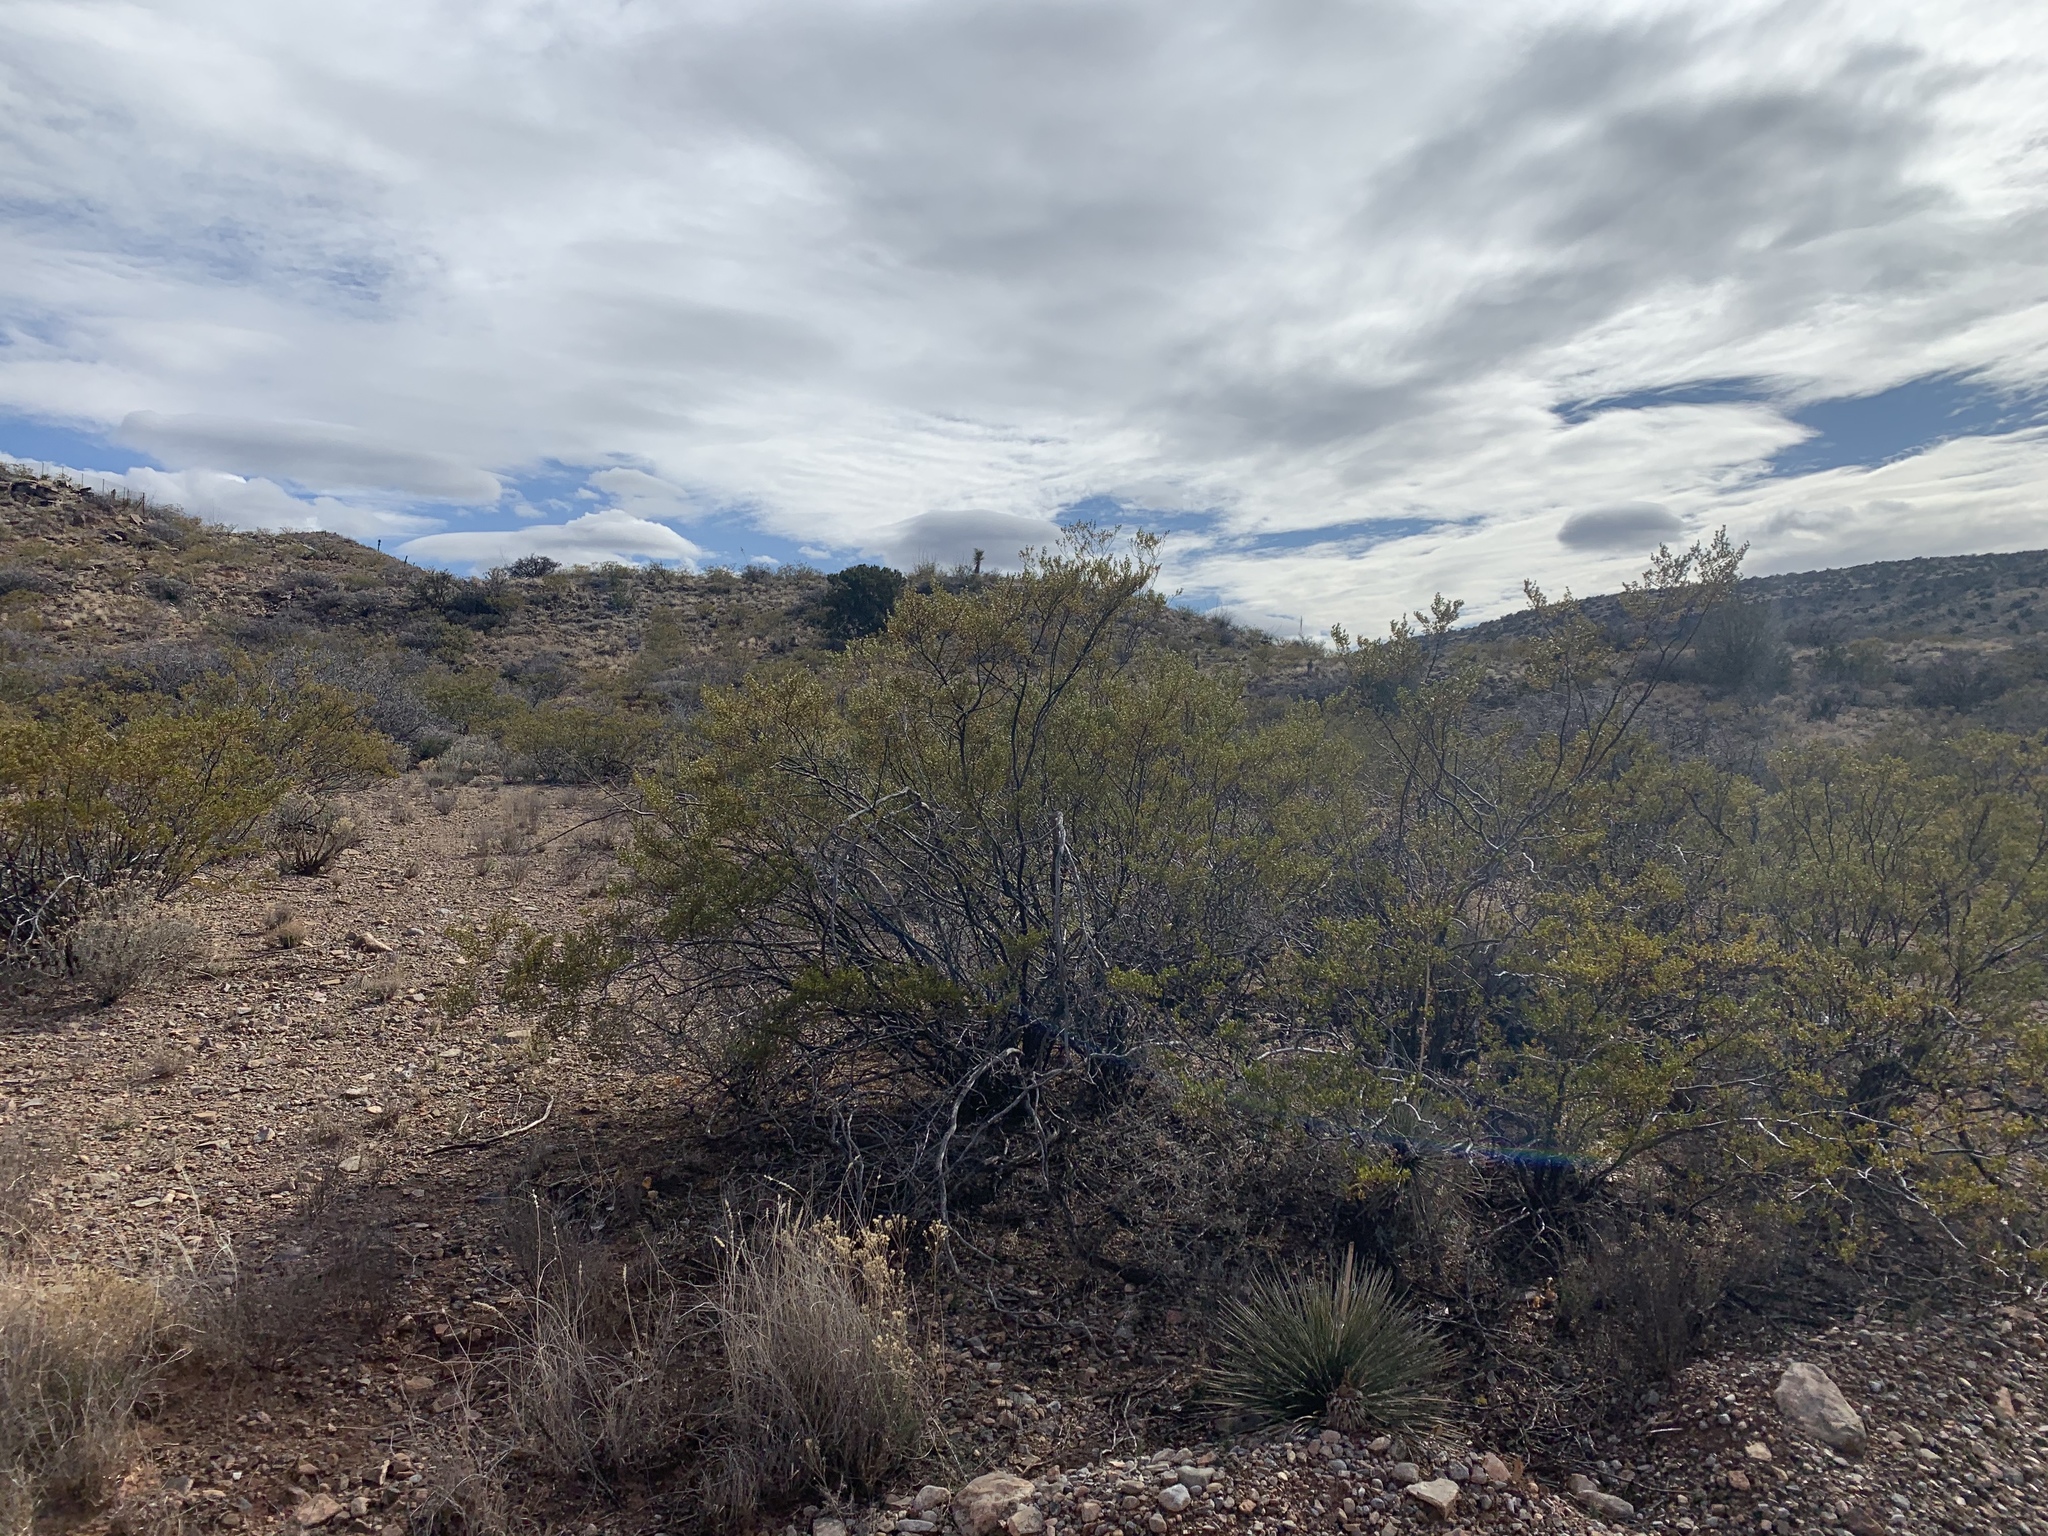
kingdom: Plantae
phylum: Tracheophyta
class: Magnoliopsida
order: Zygophyllales
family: Zygophyllaceae
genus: Larrea
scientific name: Larrea tridentata
